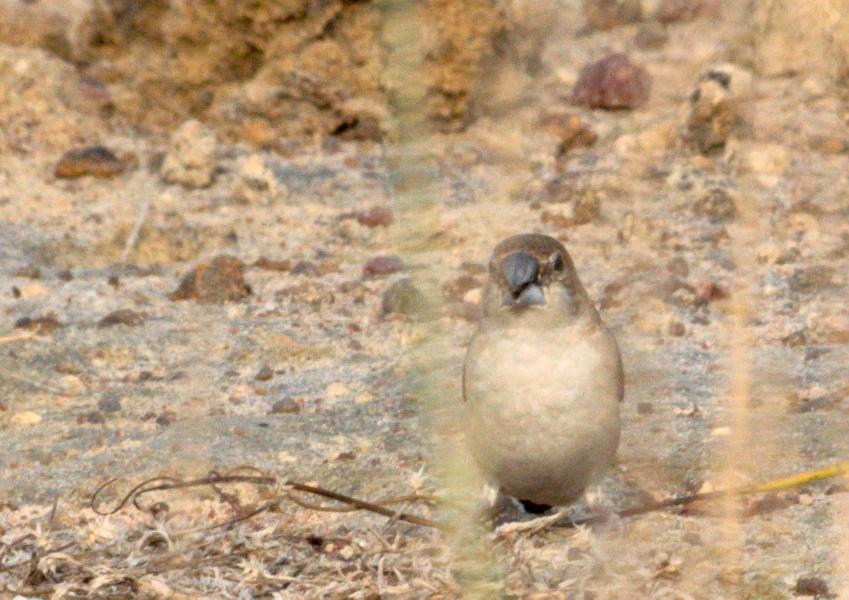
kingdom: Animalia
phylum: Chordata
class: Aves
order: Passeriformes
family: Estrildidae
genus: Euodice
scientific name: Euodice malabarica
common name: Indian silverbill
